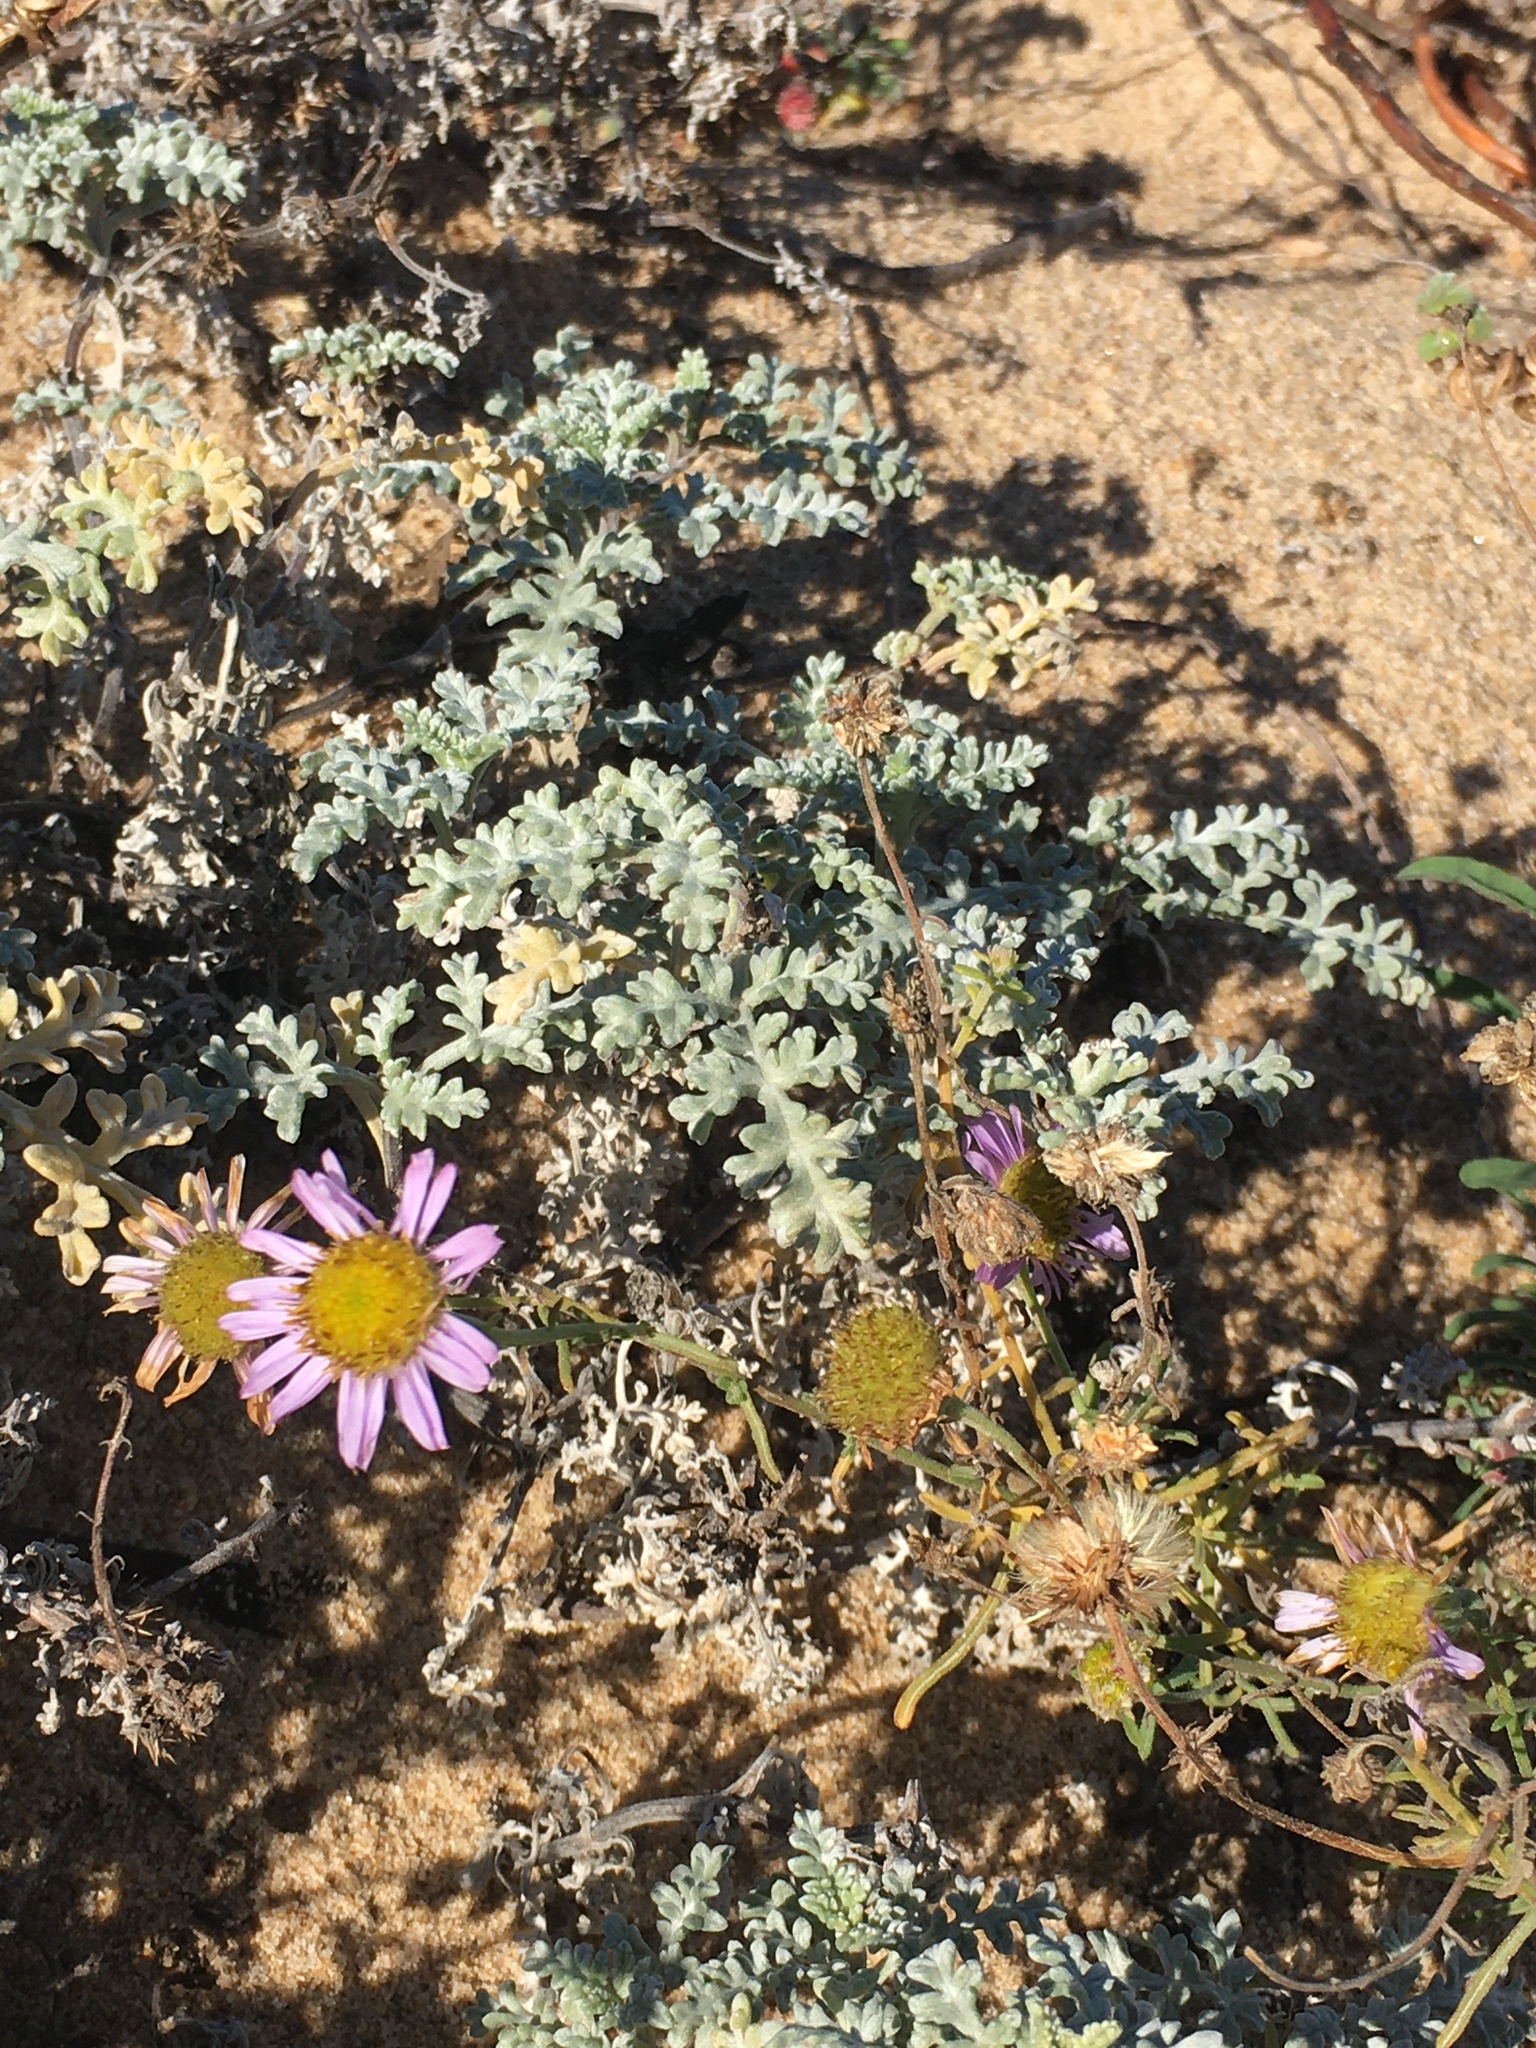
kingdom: Plantae
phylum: Tracheophyta
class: Magnoliopsida
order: Asterales
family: Asteraceae
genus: Erigeron
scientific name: Erigeron blochmaniae
